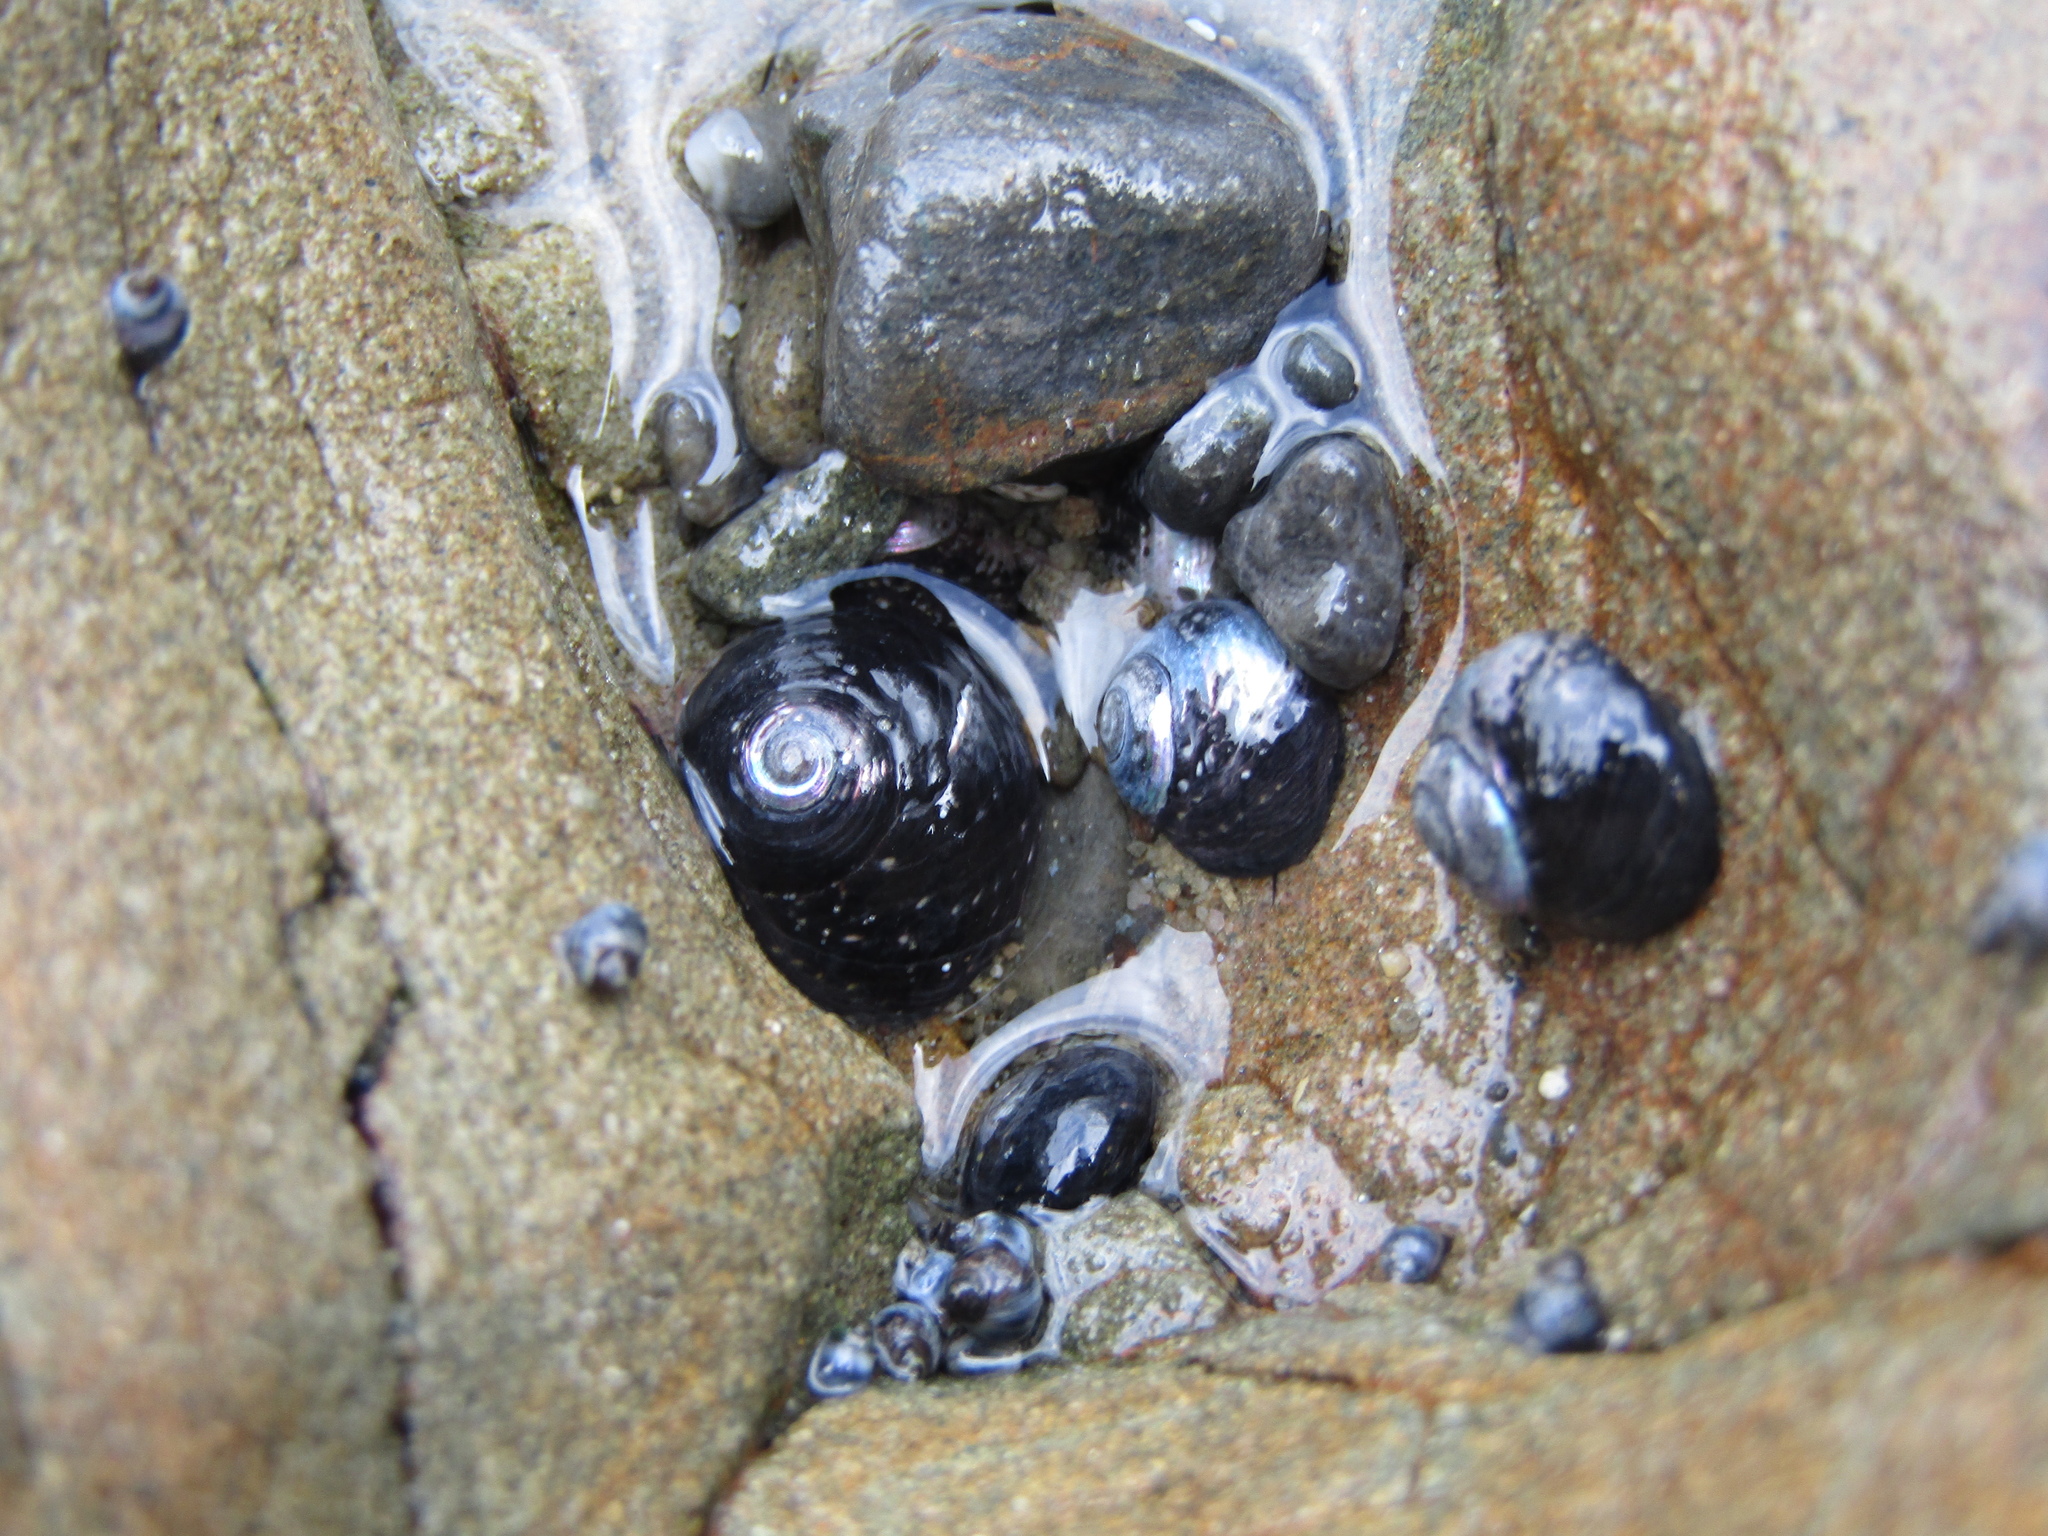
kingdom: Animalia
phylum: Mollusca
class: Gastropoda
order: Trochida
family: Trochidae
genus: Diloma
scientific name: Diloma aridum
